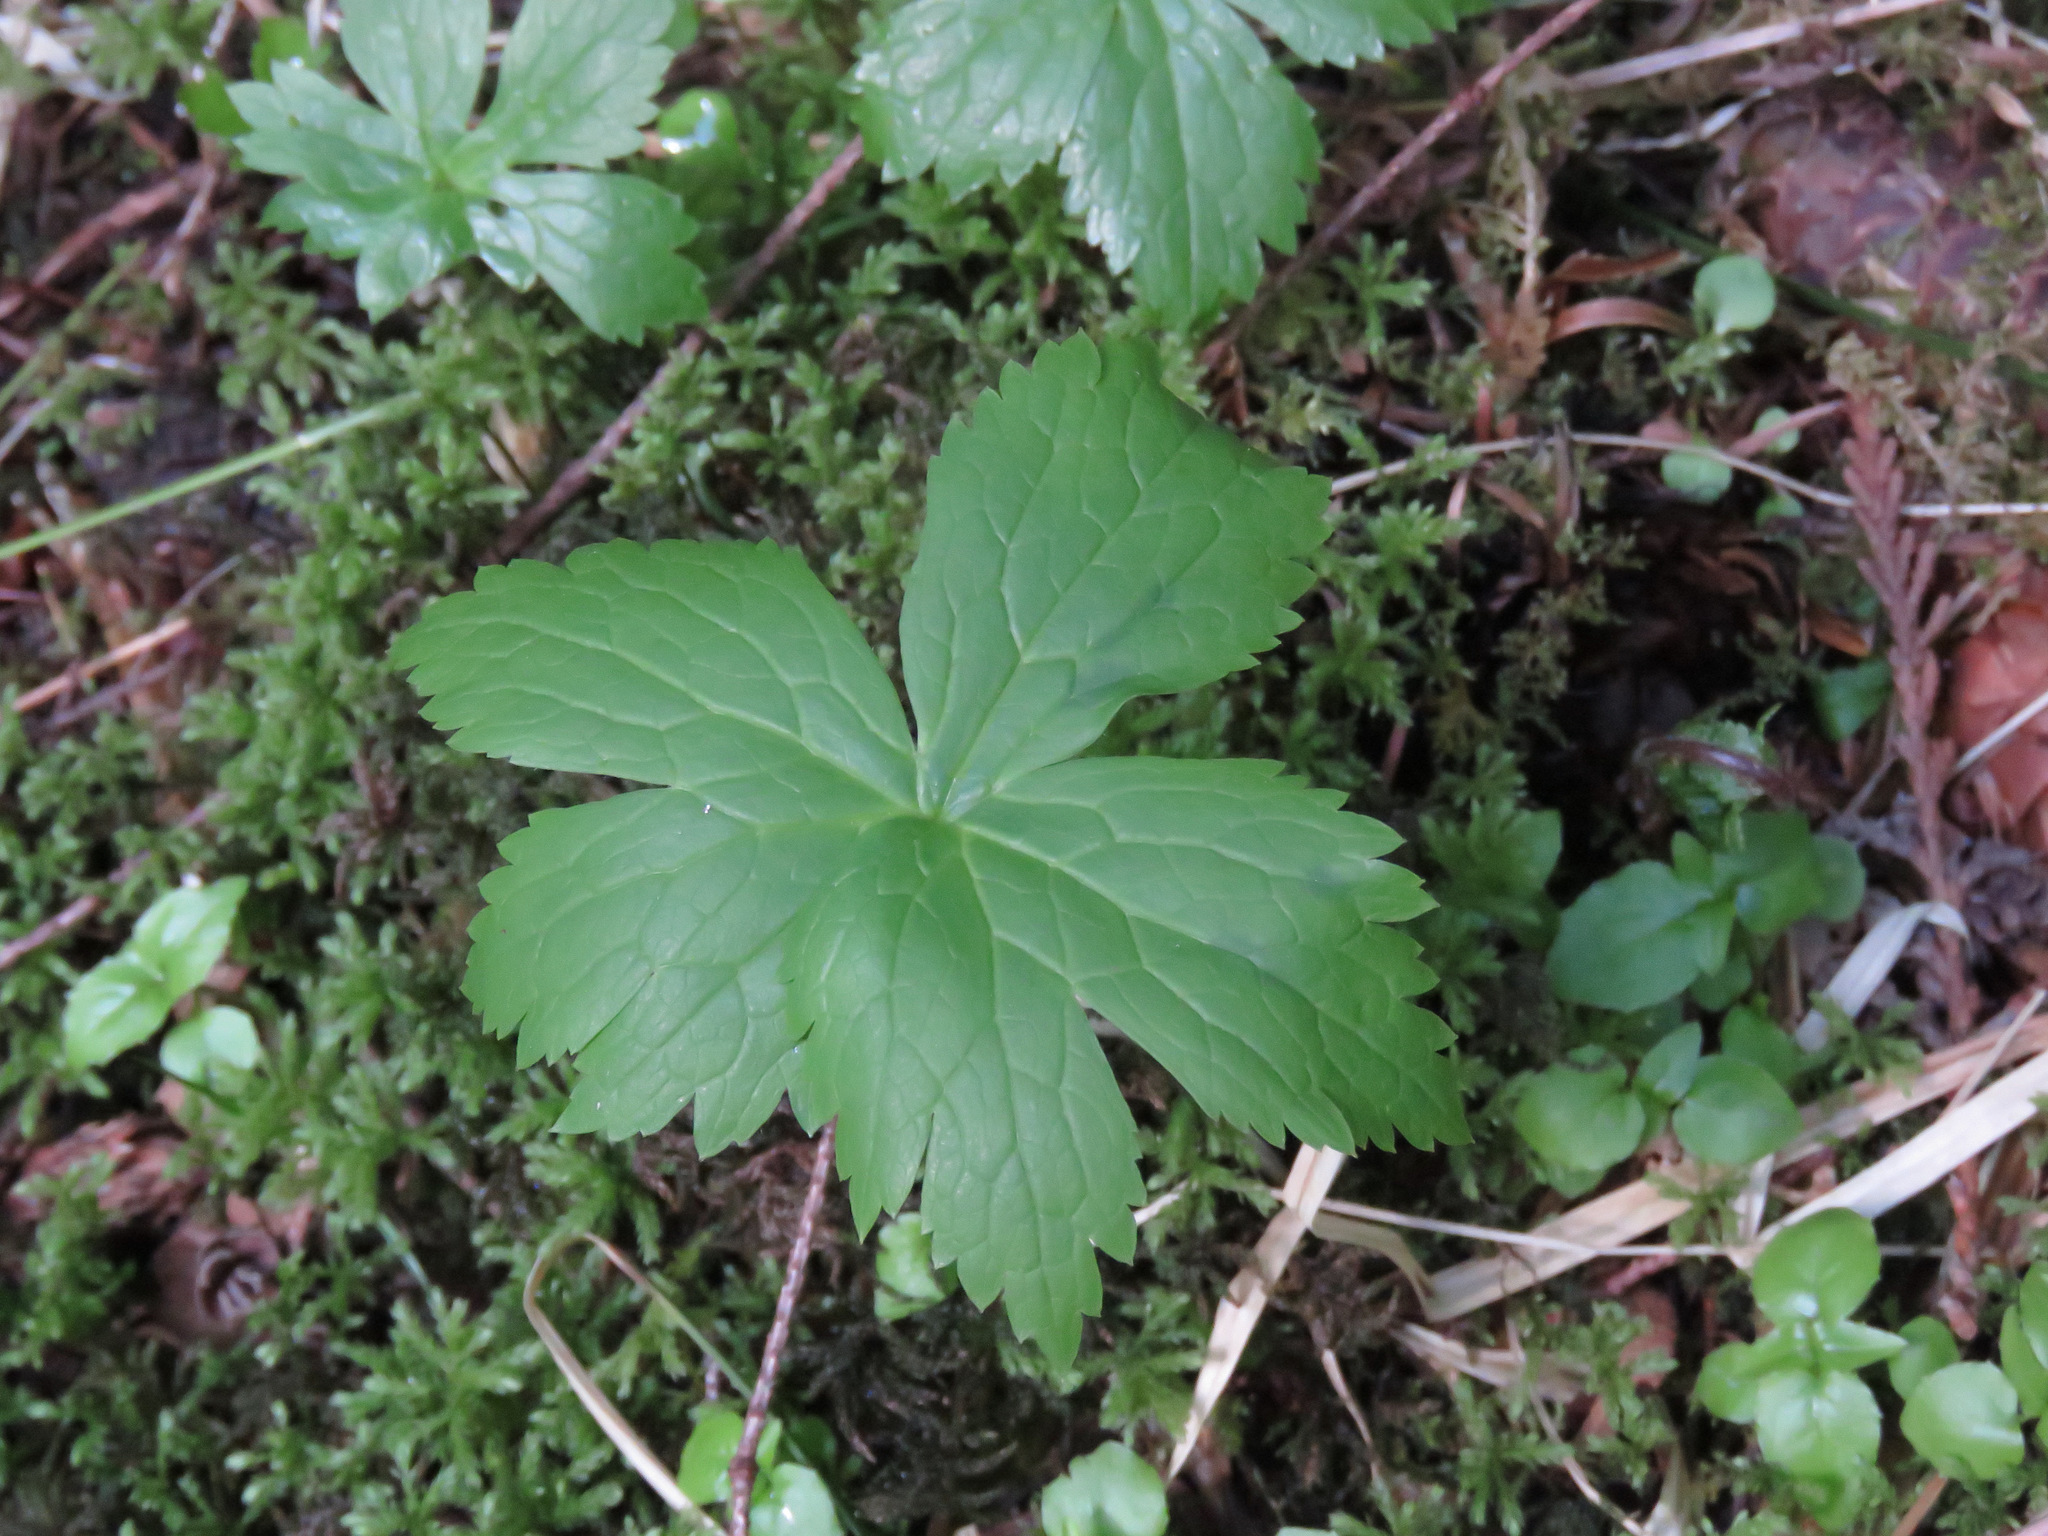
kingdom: Plantae
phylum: Tracheophyta
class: Magnoliopsida
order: Ranunculales
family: Ranunculaceae
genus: Trautvetteria
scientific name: Trautvetteria carolinensis
